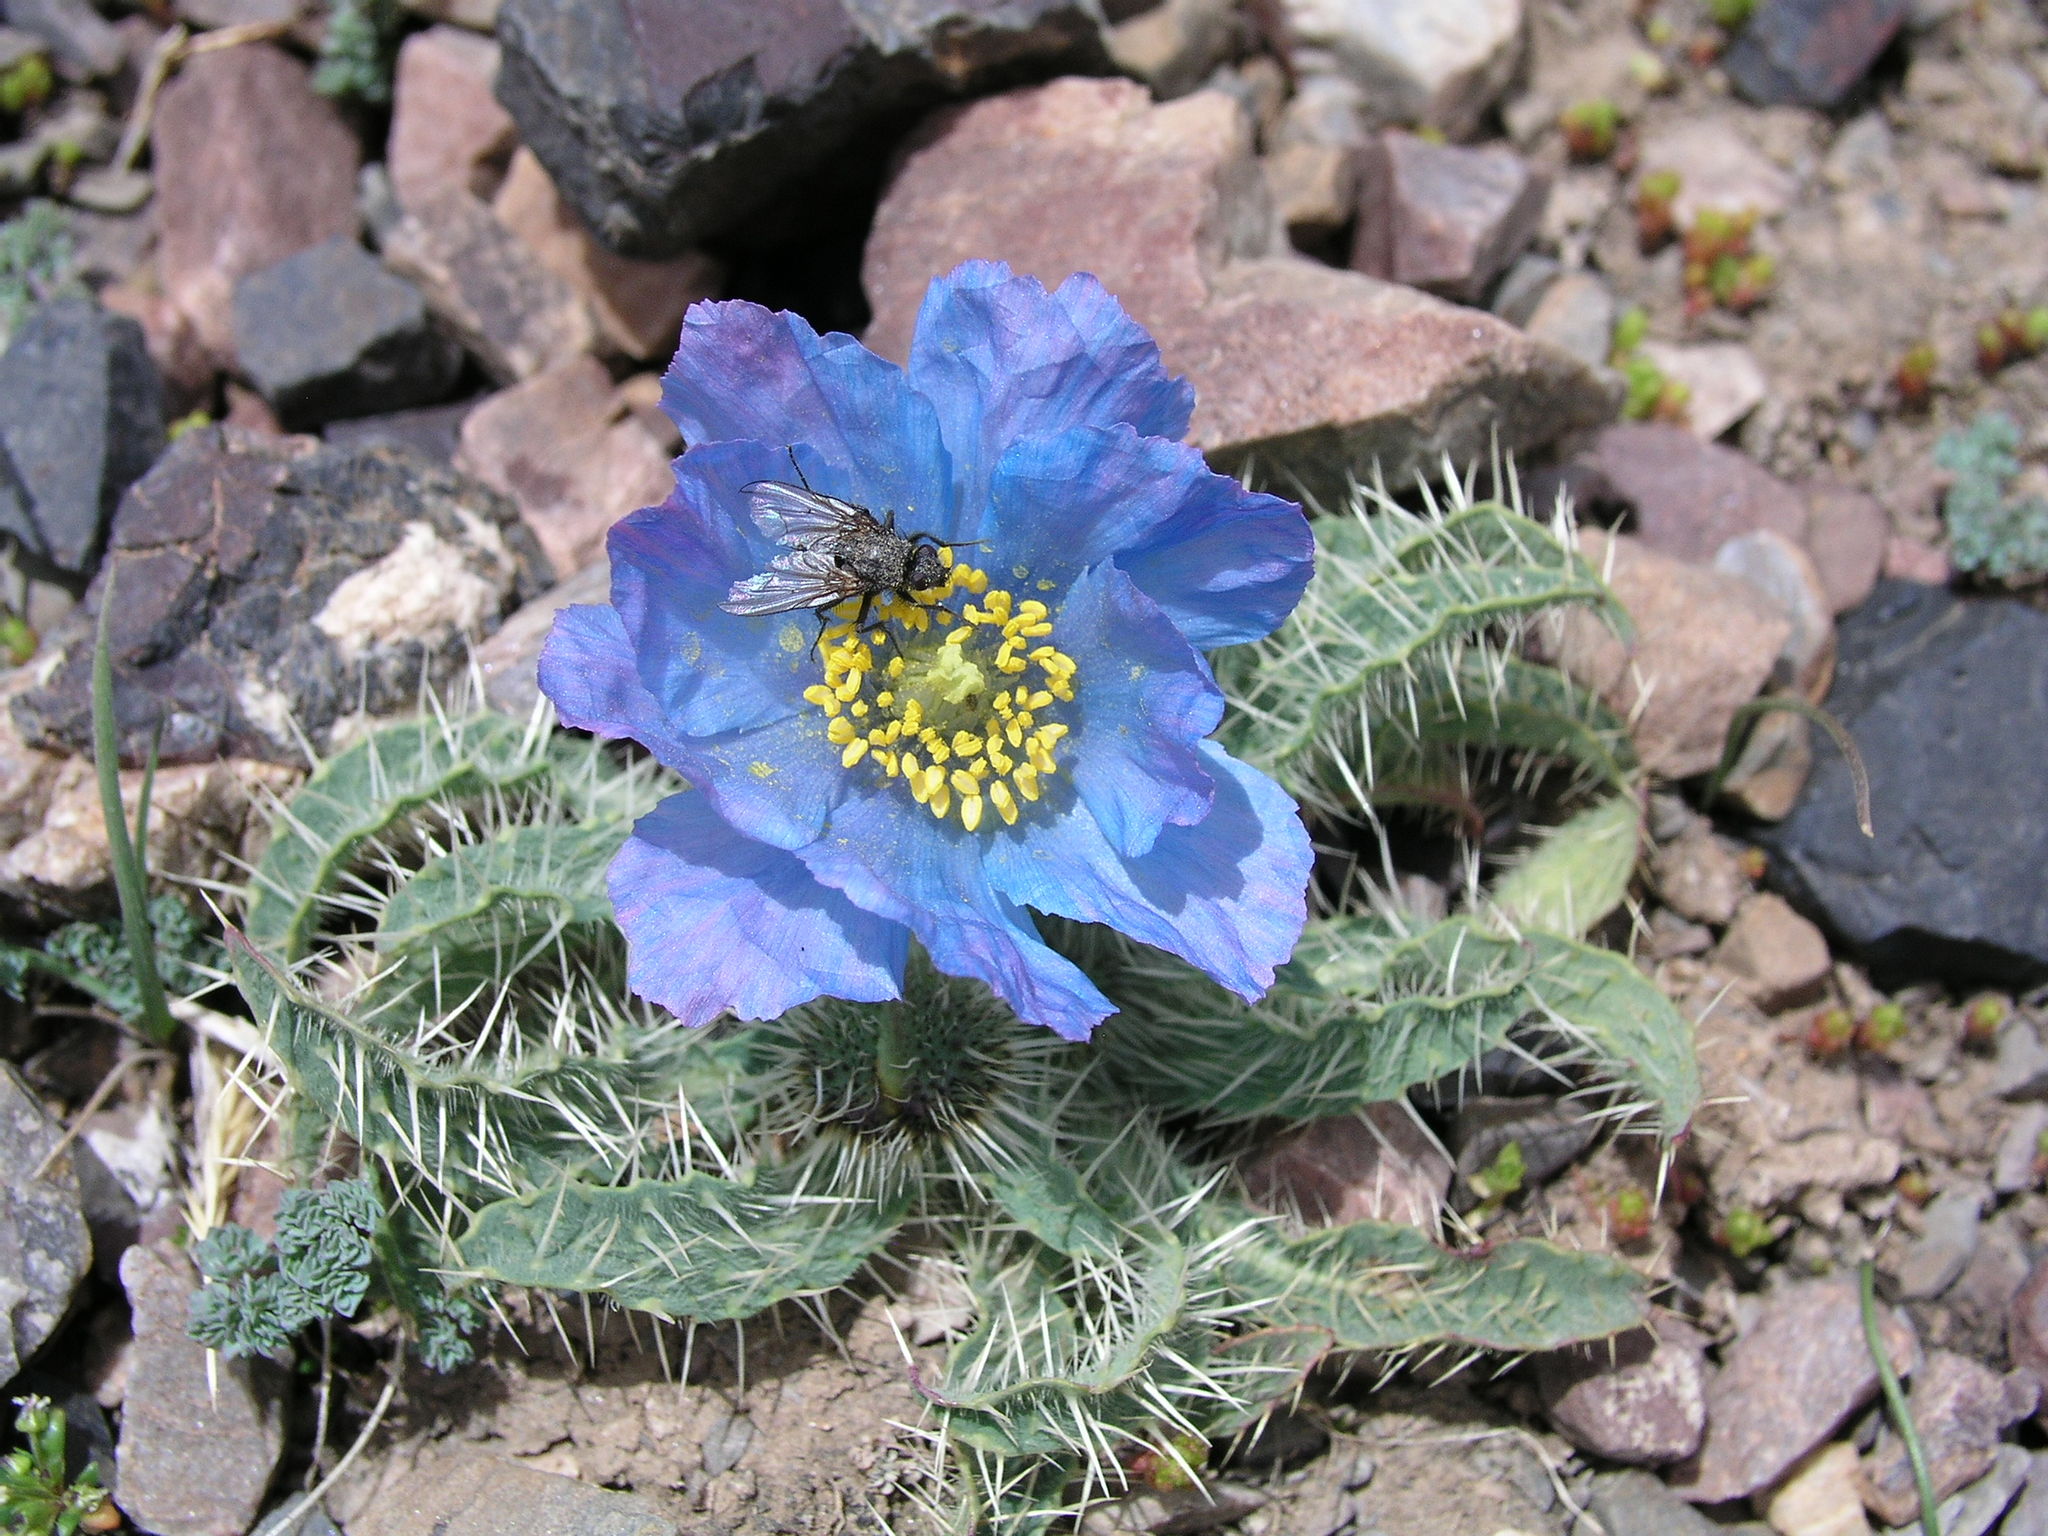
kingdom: Plantae
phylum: Tracheophyta
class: Magnoliopsida
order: Ranunculales
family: Papaveraceae
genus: Meconopsis
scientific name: Meconopsis horridula
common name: Prickly blue-poppy
